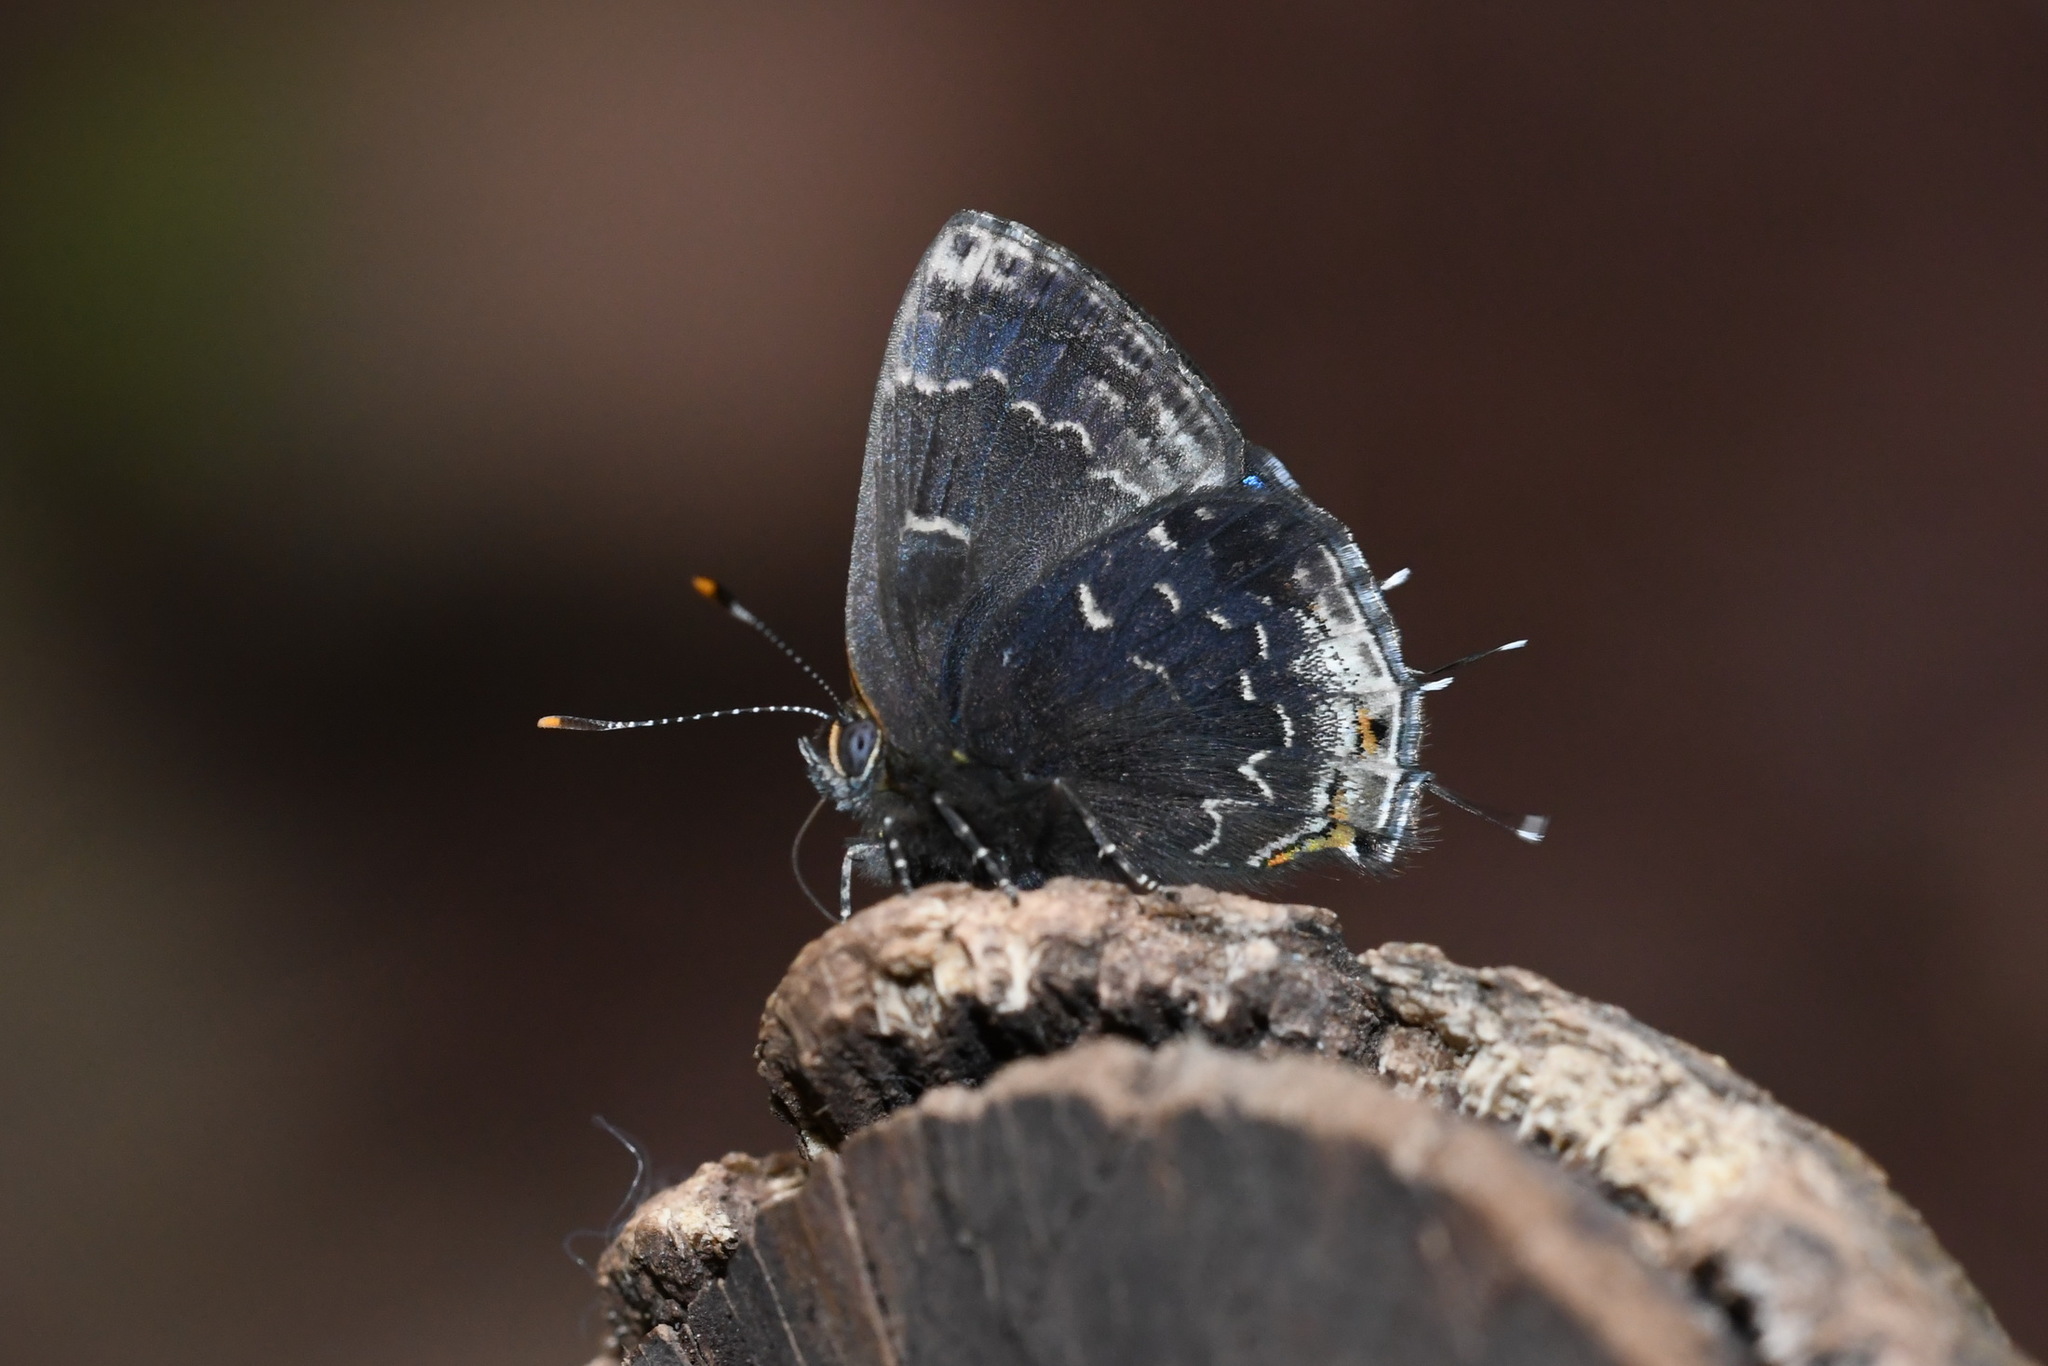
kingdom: Animalia
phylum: Arthropoda
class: Insecta
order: Lepidoptera
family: Lycaenidae
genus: Ocaria
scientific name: Ocaria ocrisia
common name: Black hairstreak
